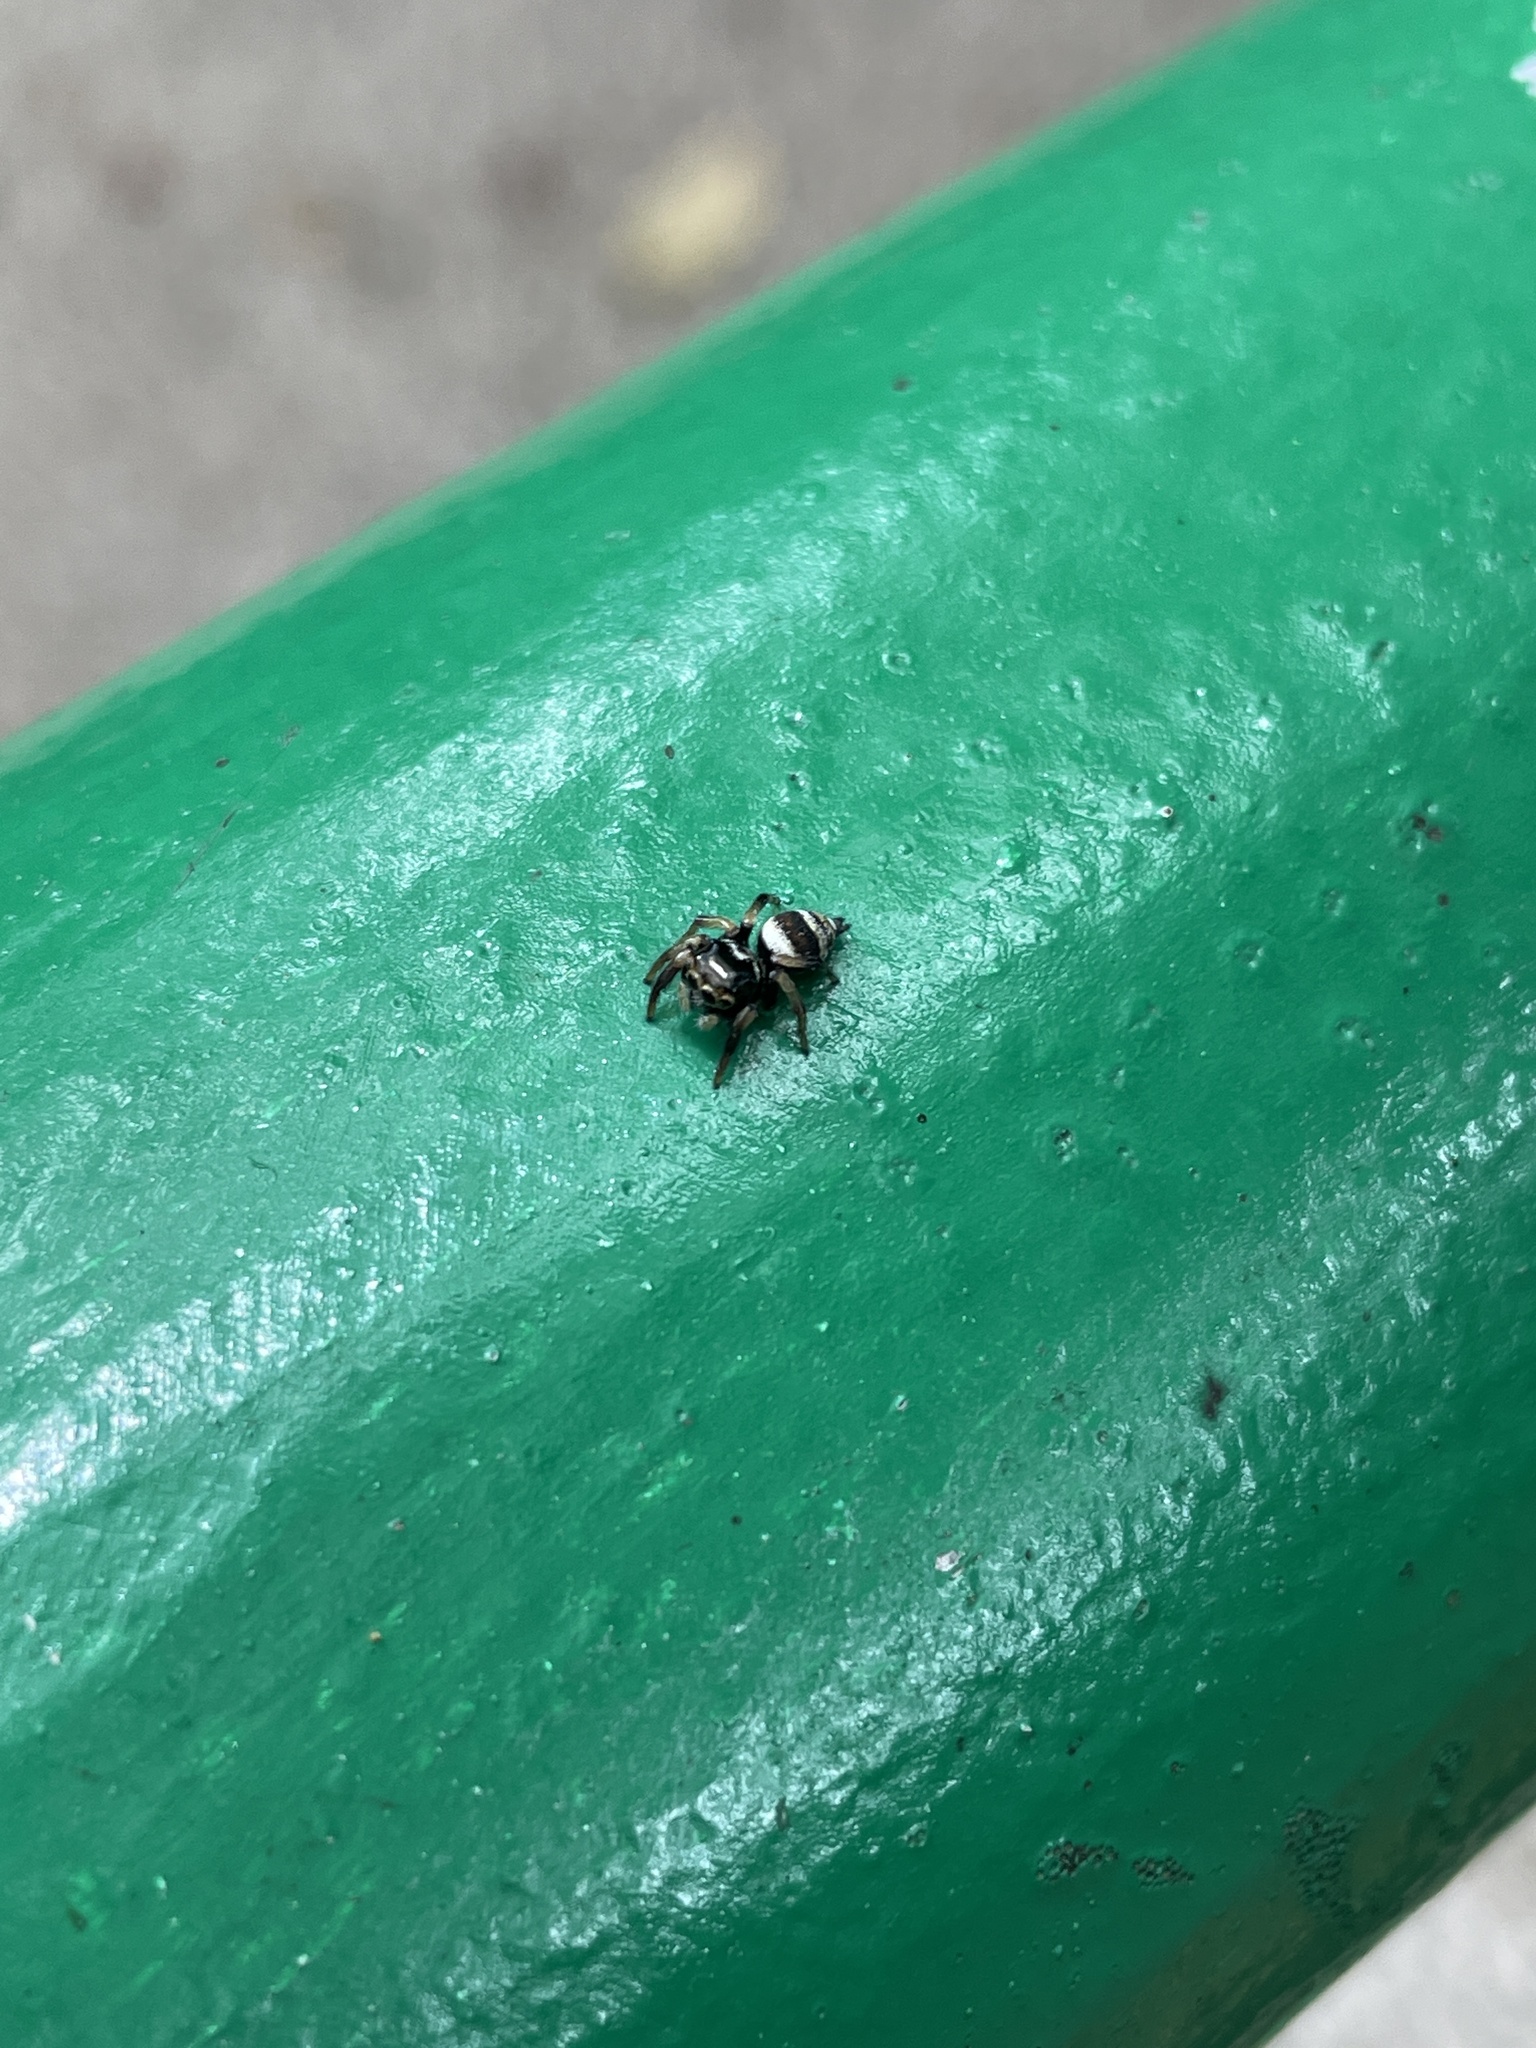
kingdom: Animalia
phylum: Arthropoda
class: Arachnida
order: Araneae
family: Salticidae
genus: Ptocasius
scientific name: Ptocasius strupifer
